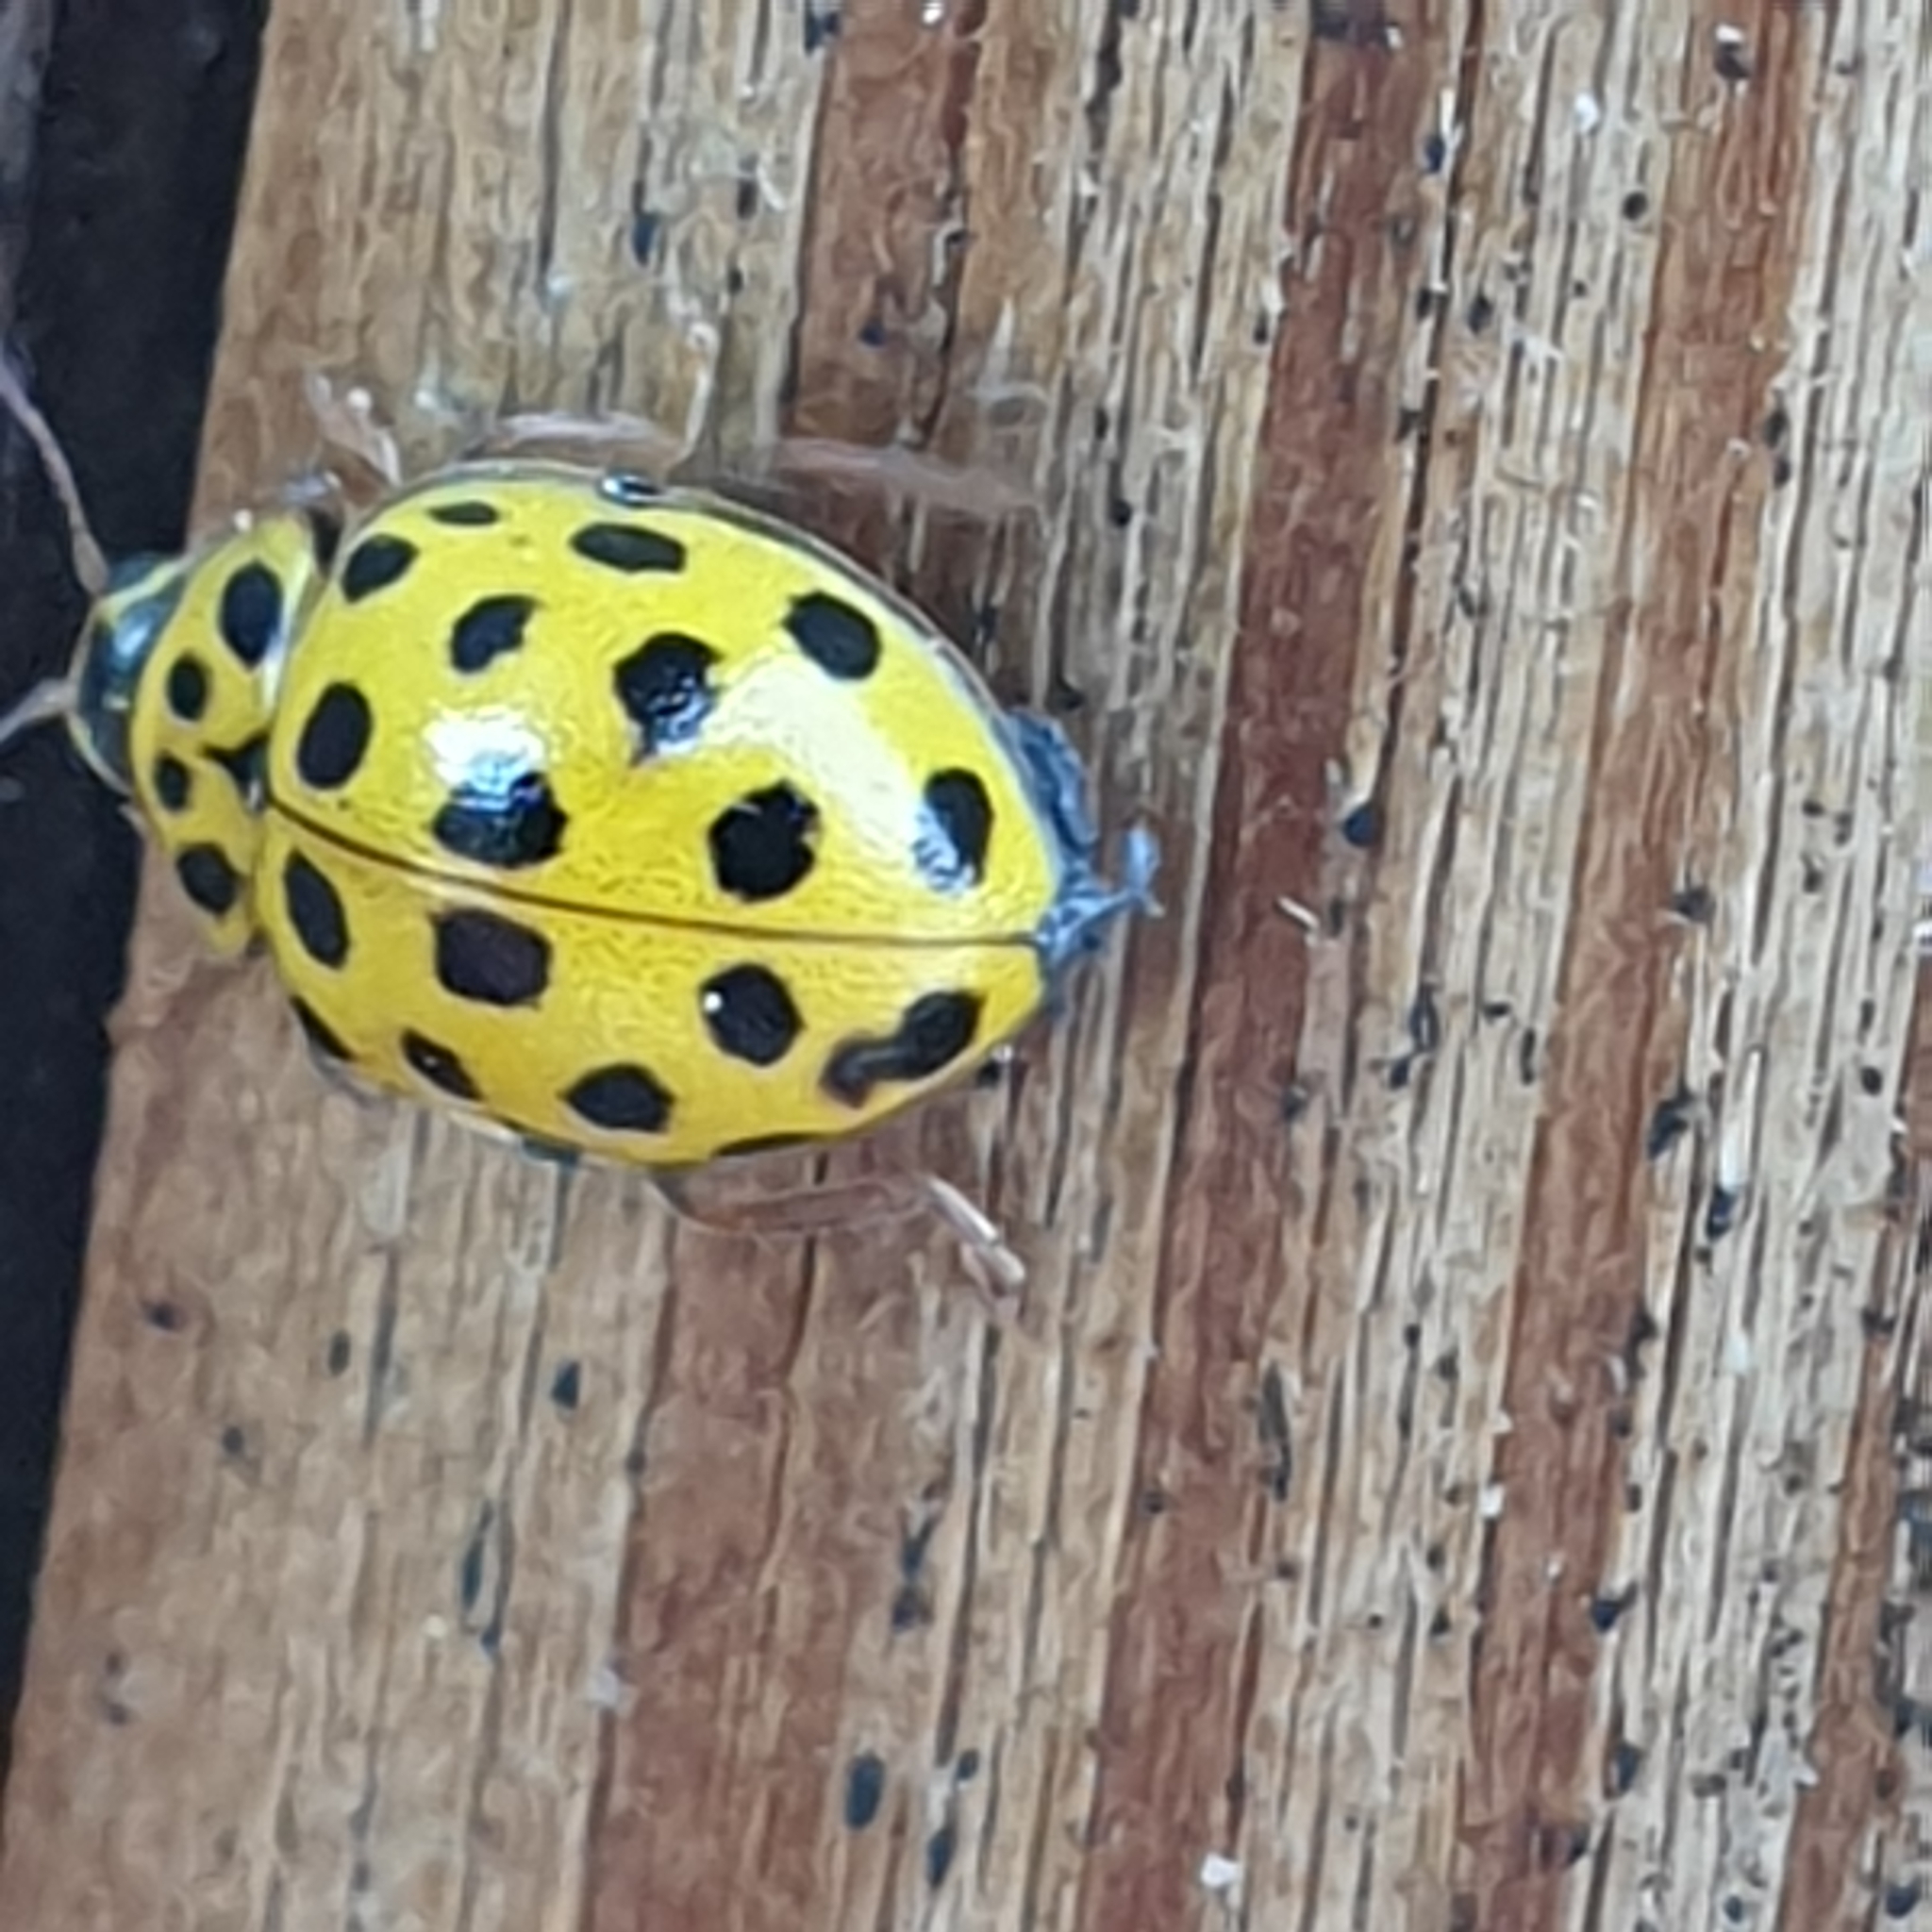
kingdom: Animalia
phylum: Arthropoda
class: Insecta
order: Coleoptera
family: Coccinellidae
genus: Psyllobora
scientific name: Psyllobora vigintiduopunctata
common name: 22-spot ladybird
